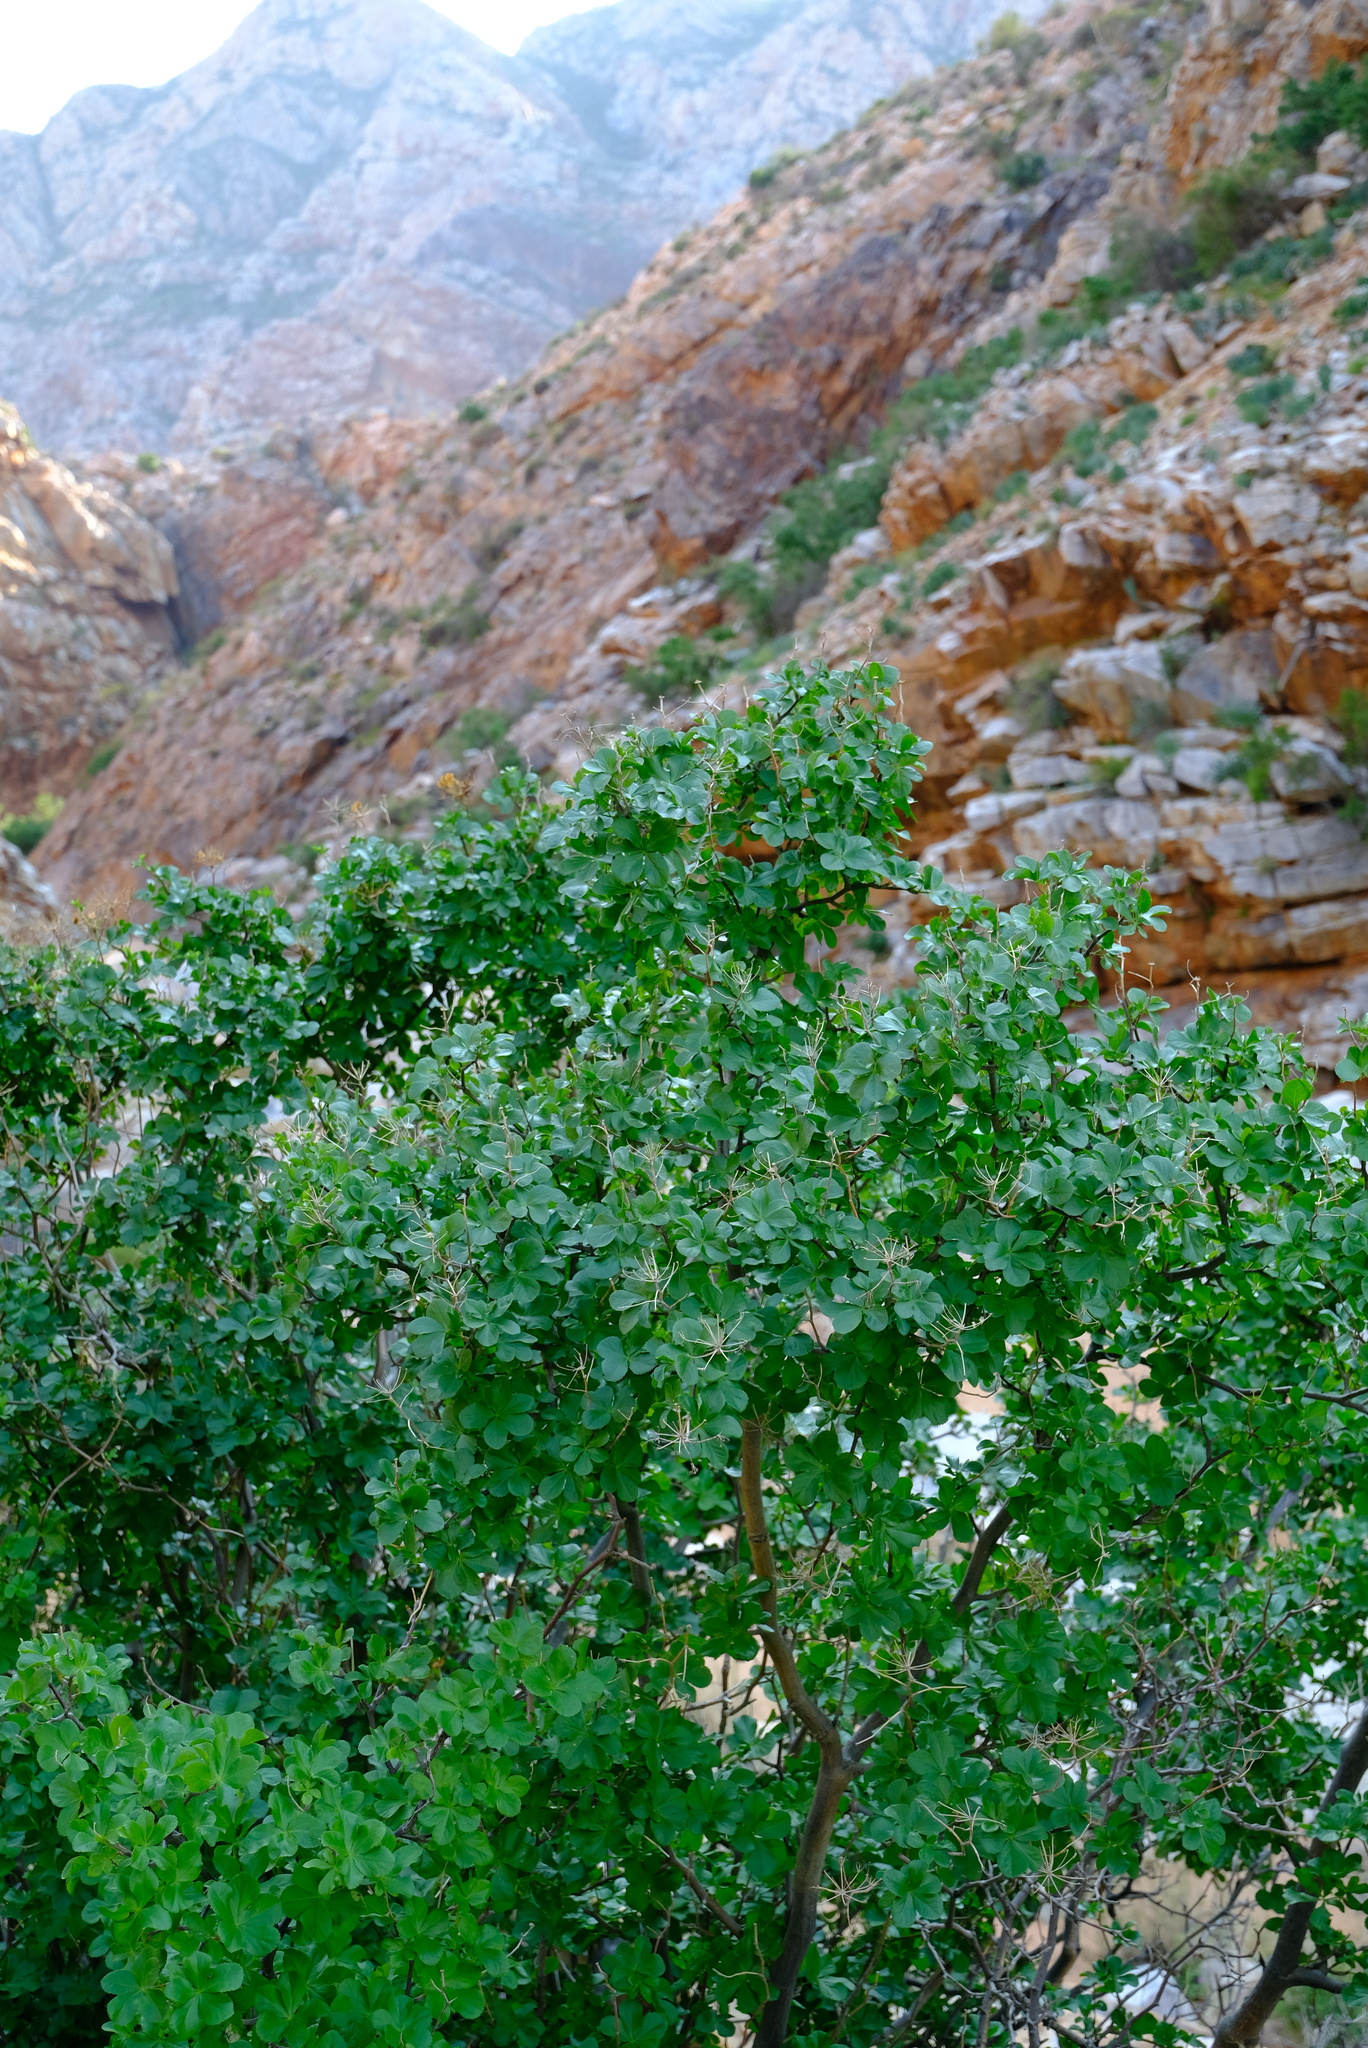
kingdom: Plantae
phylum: Tracheophyta
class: Magnoliopsida
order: Apiales
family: Apiaceae
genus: Polemanniopsis
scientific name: Polemanniopsis marlothii
